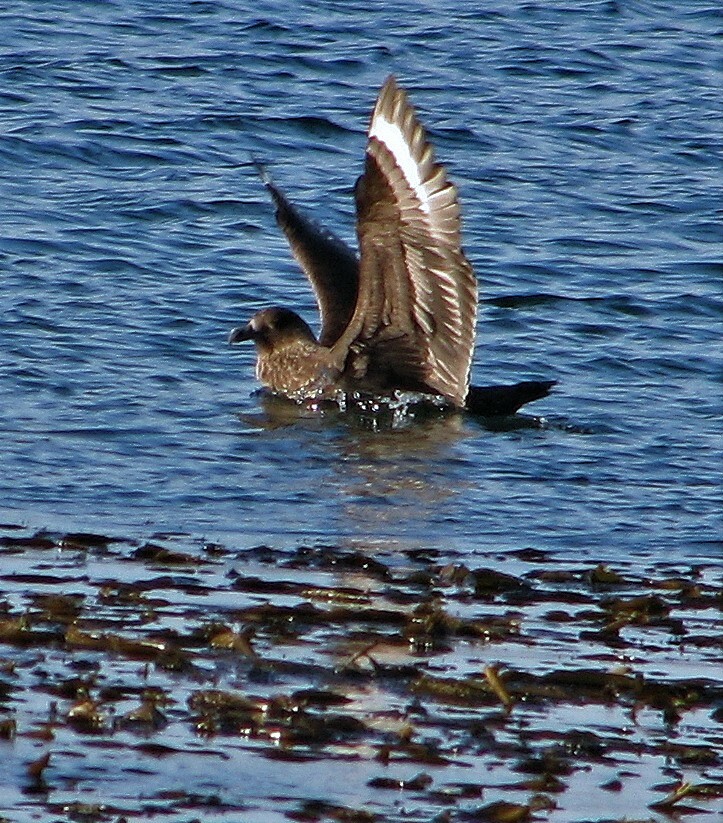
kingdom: Animalia
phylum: Chordata
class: Aves
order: Charadriiformes
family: Stercorariidae
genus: Stercorarius
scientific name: Stercorarius antarcticus
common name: Brown skua
